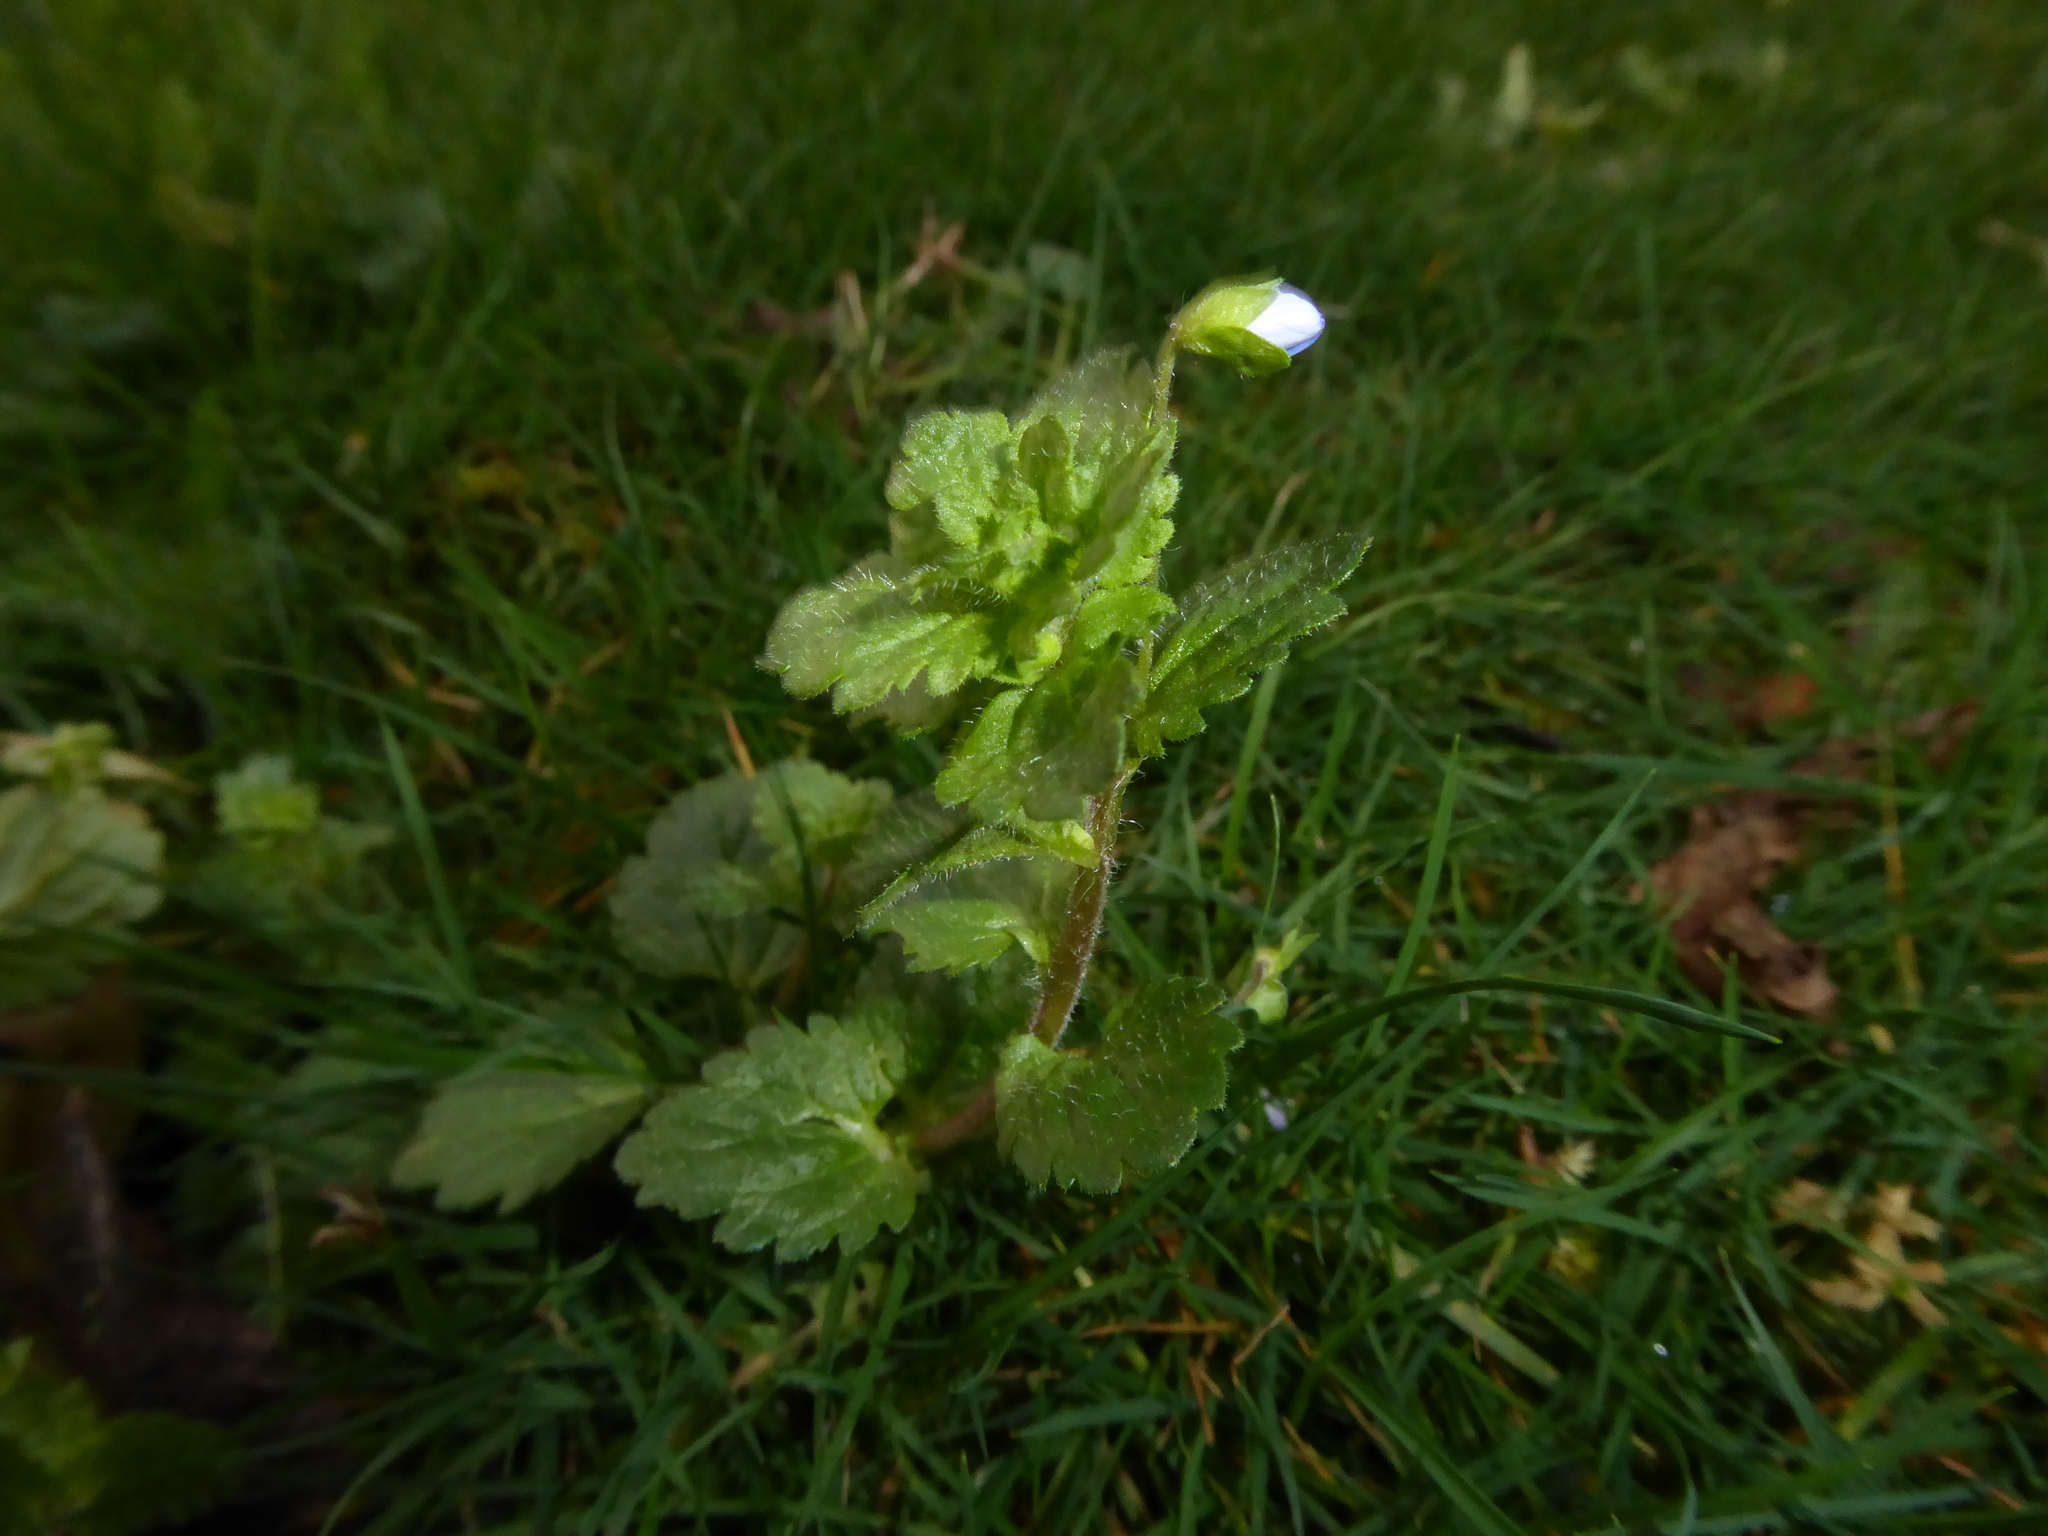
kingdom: Plantae
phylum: Tracheophyta
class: Magnoliopsida
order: Lamiales
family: Plantaginaceae
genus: Veronica
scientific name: Veronica persica
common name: Common field-speedwell
